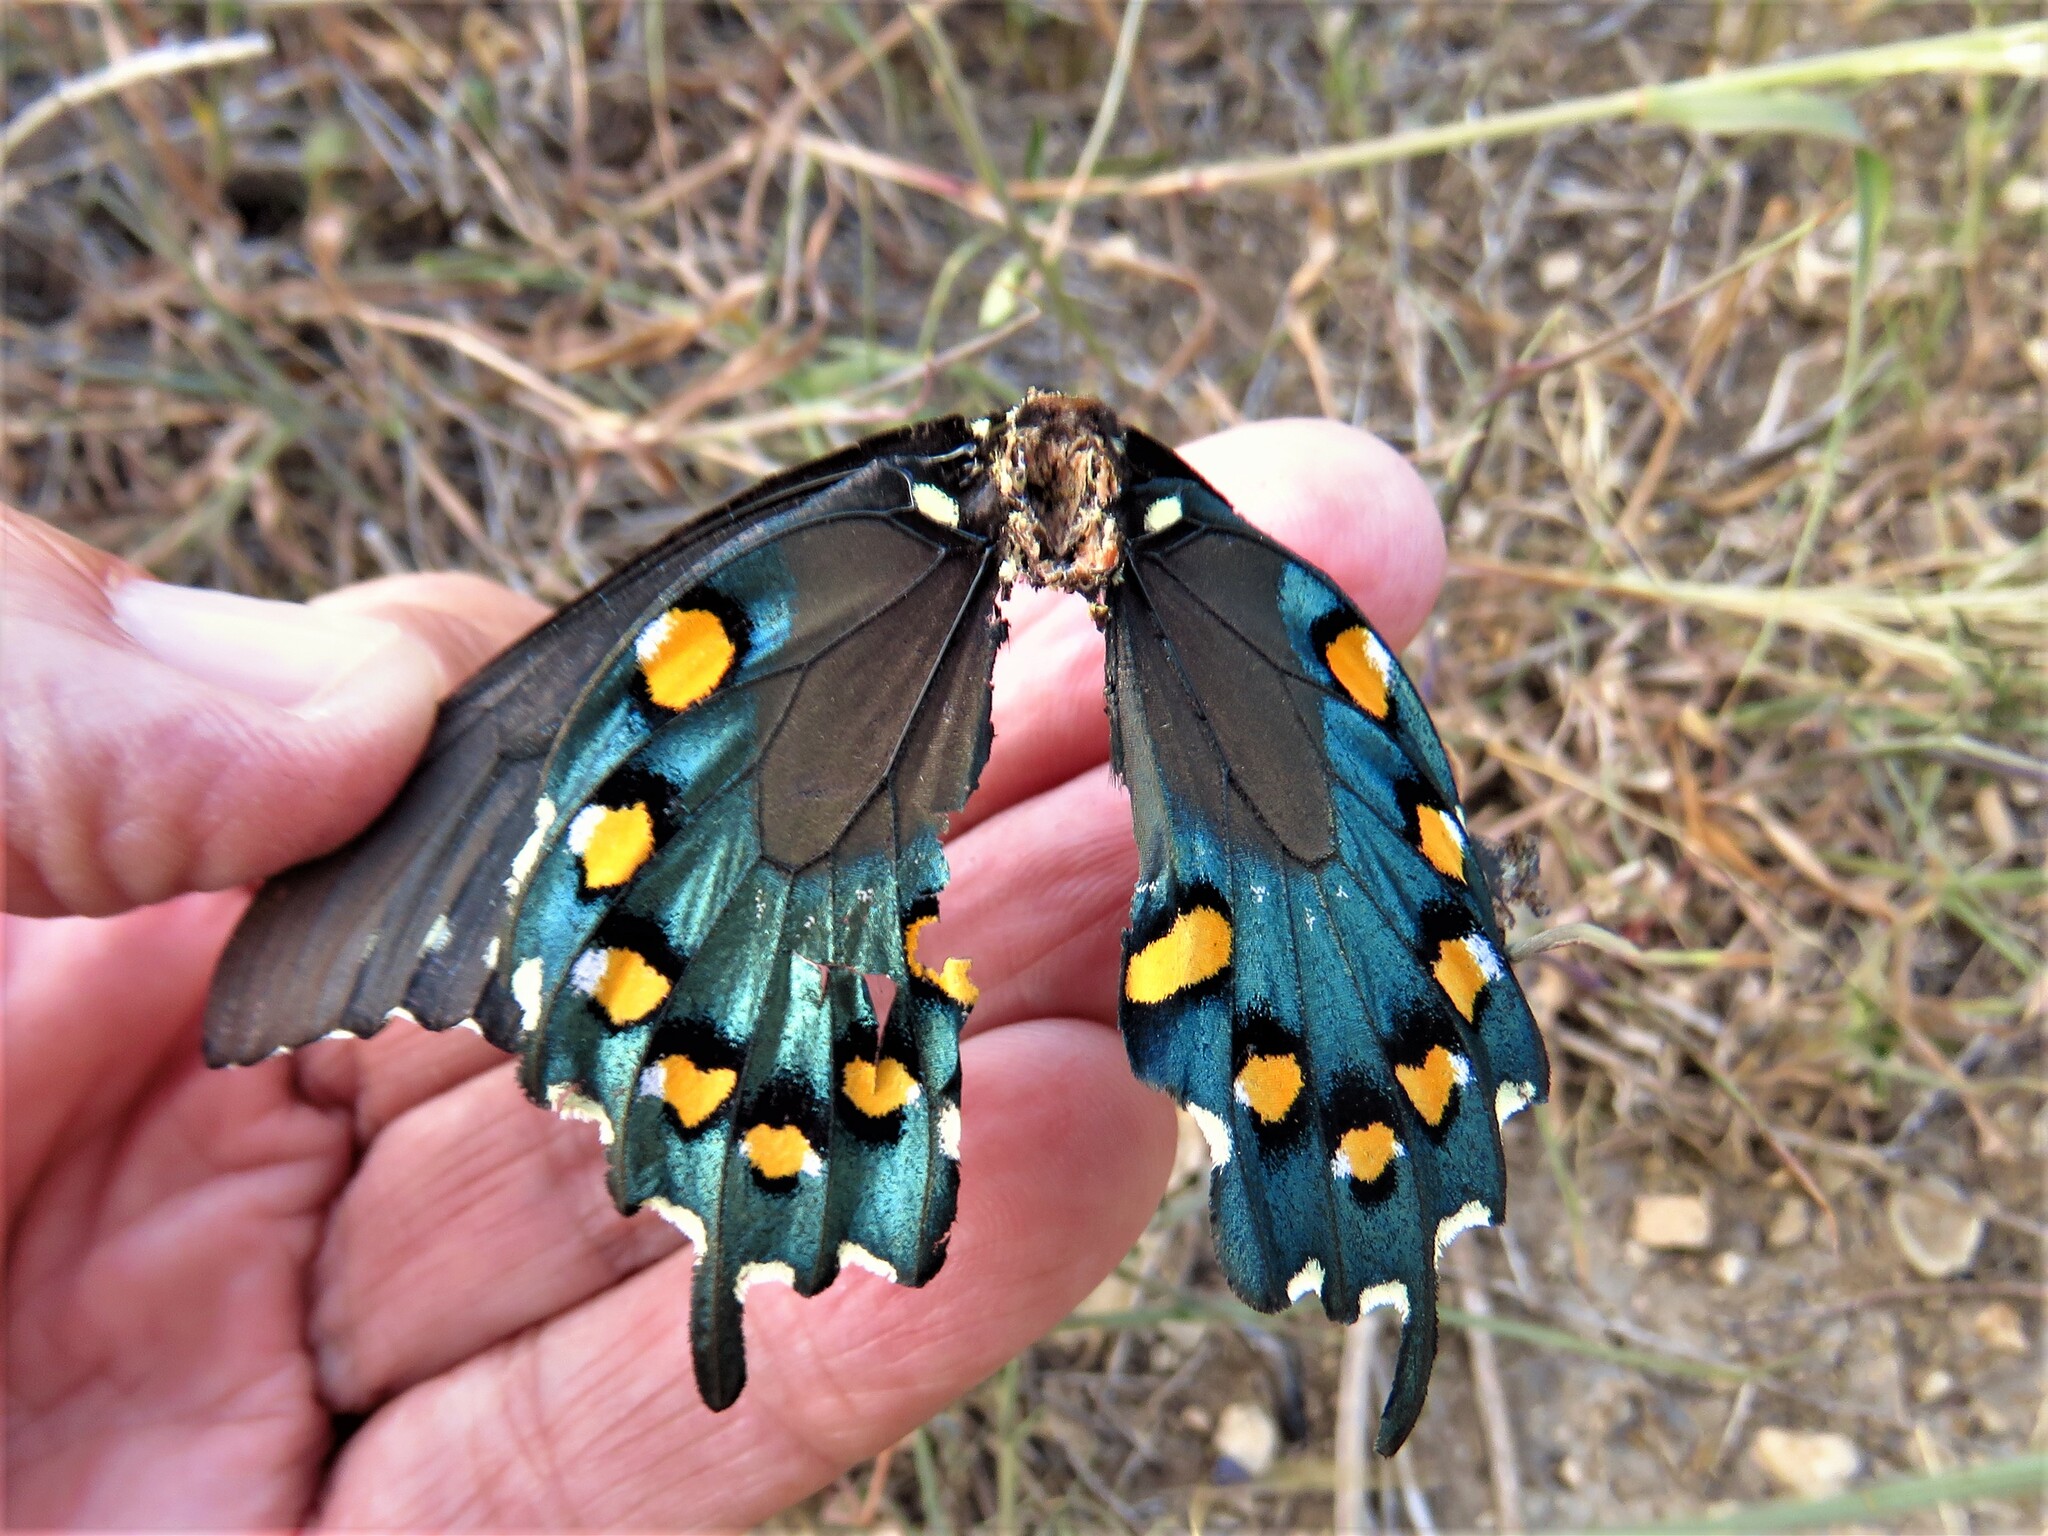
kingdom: Animalia
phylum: Arthropoda
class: Insecta
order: Lepidoptera
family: Papilionidae
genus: Battus
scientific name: Battus philenor
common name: Pipevine swallowtail
